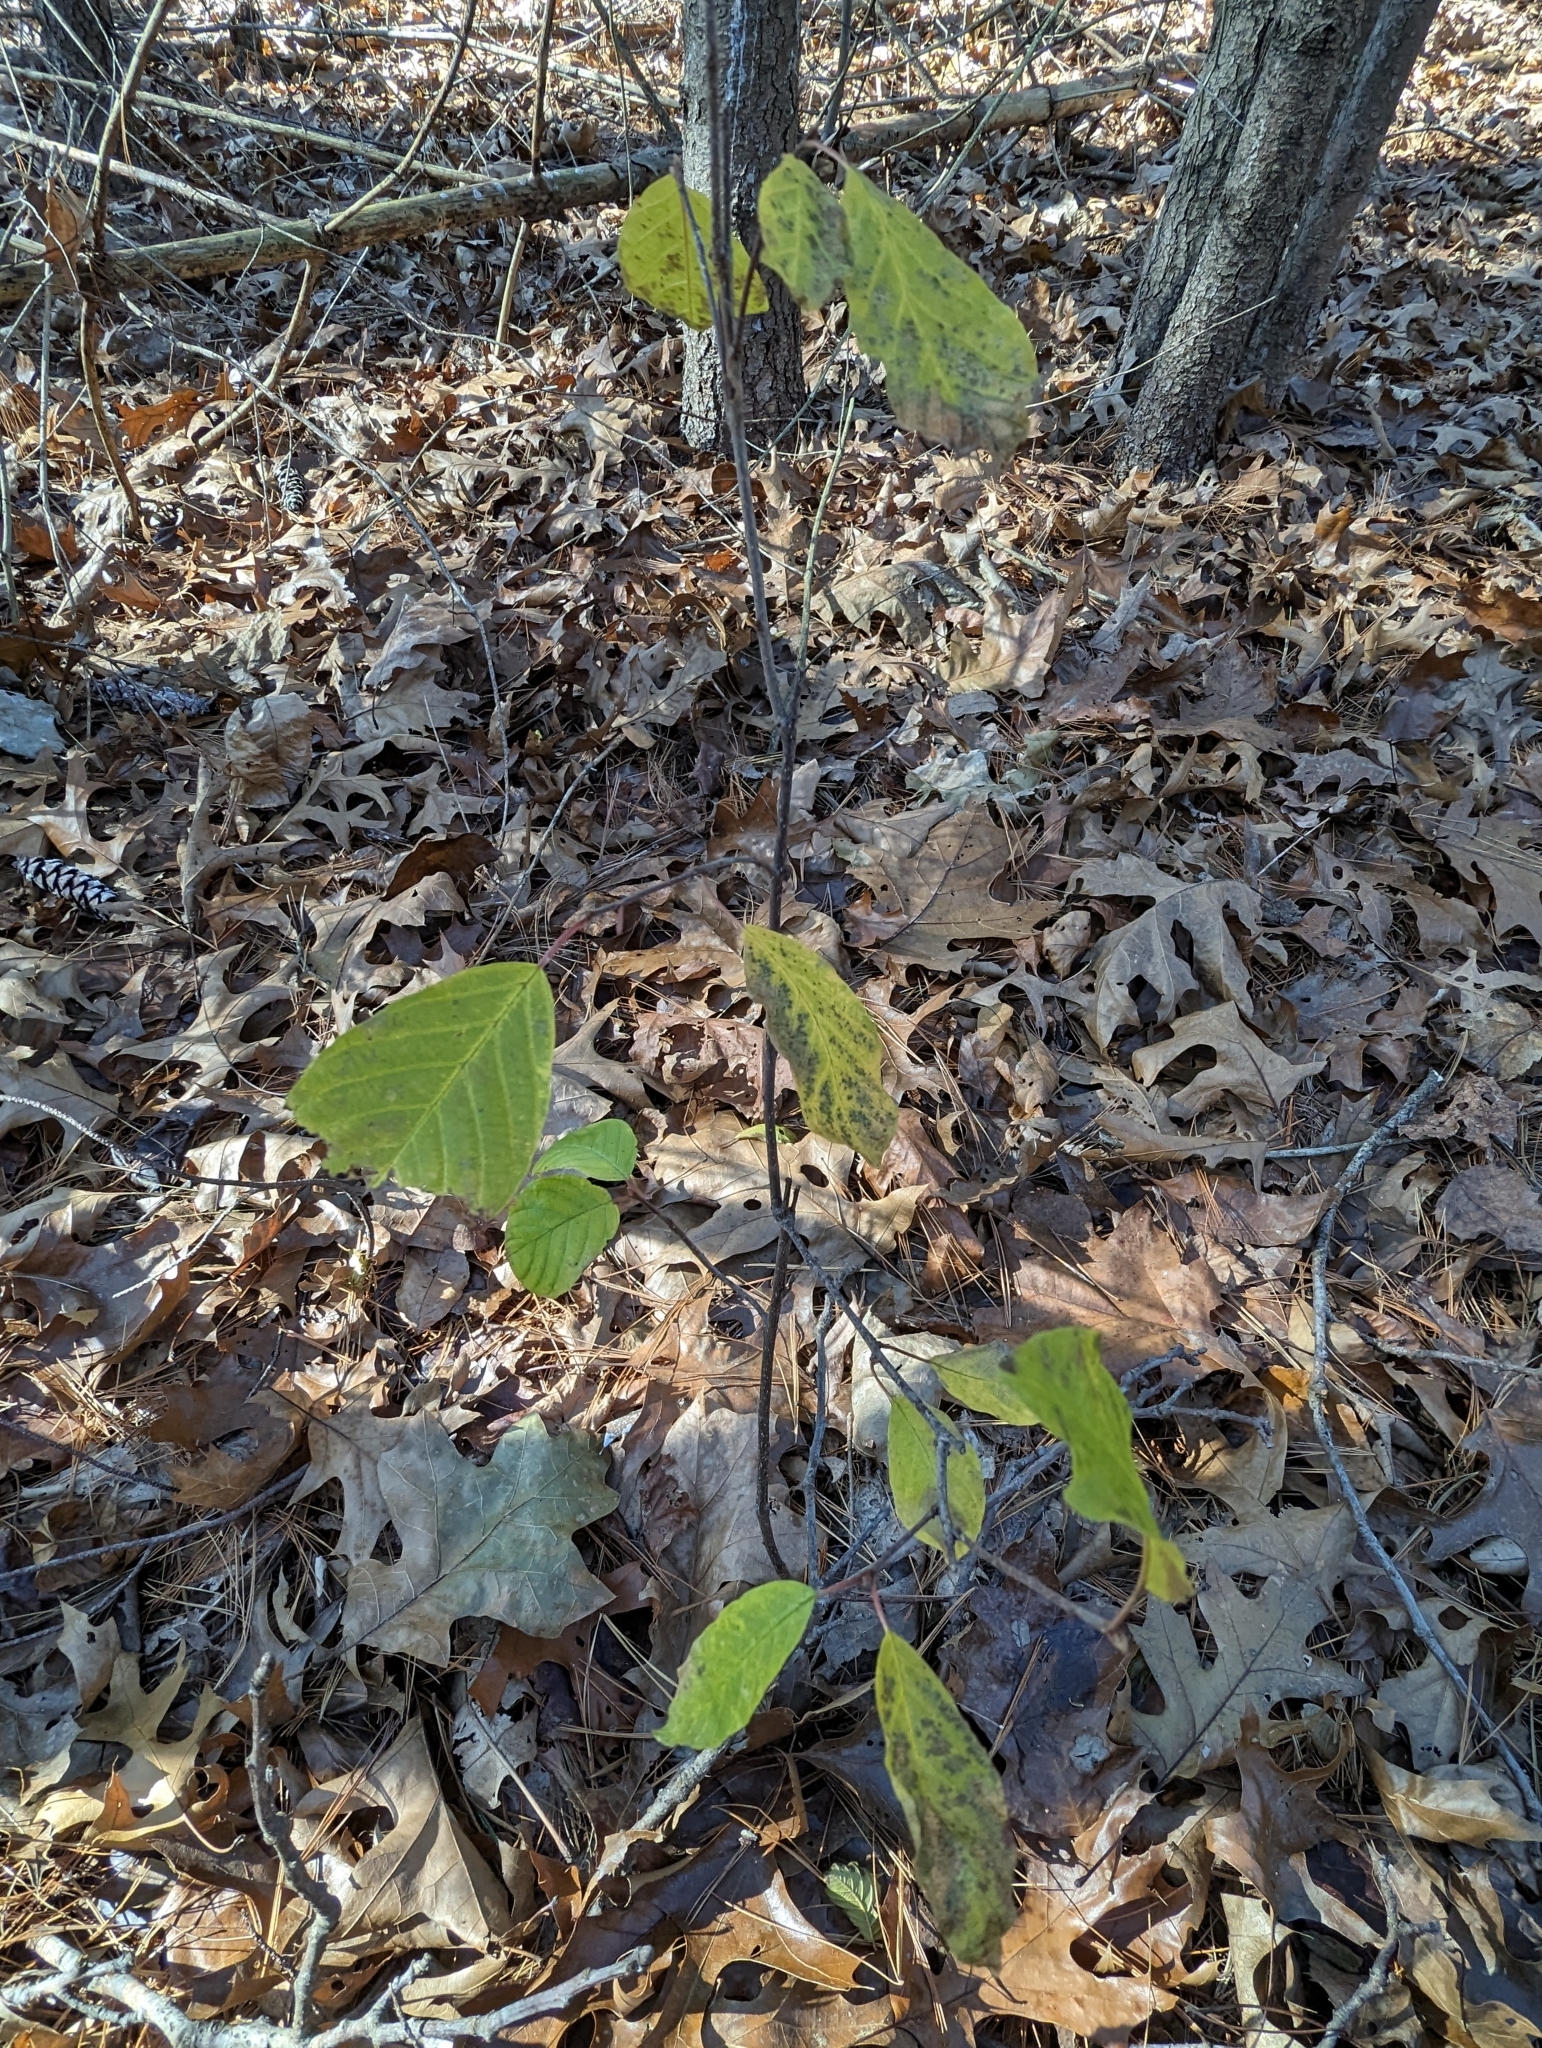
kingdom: Plantae
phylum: Tracheophyta
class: Magnoliopsida
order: Rosales
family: Rhamnaceae
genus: Frangula
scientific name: Frangula alnus
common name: Alder buckthorn
